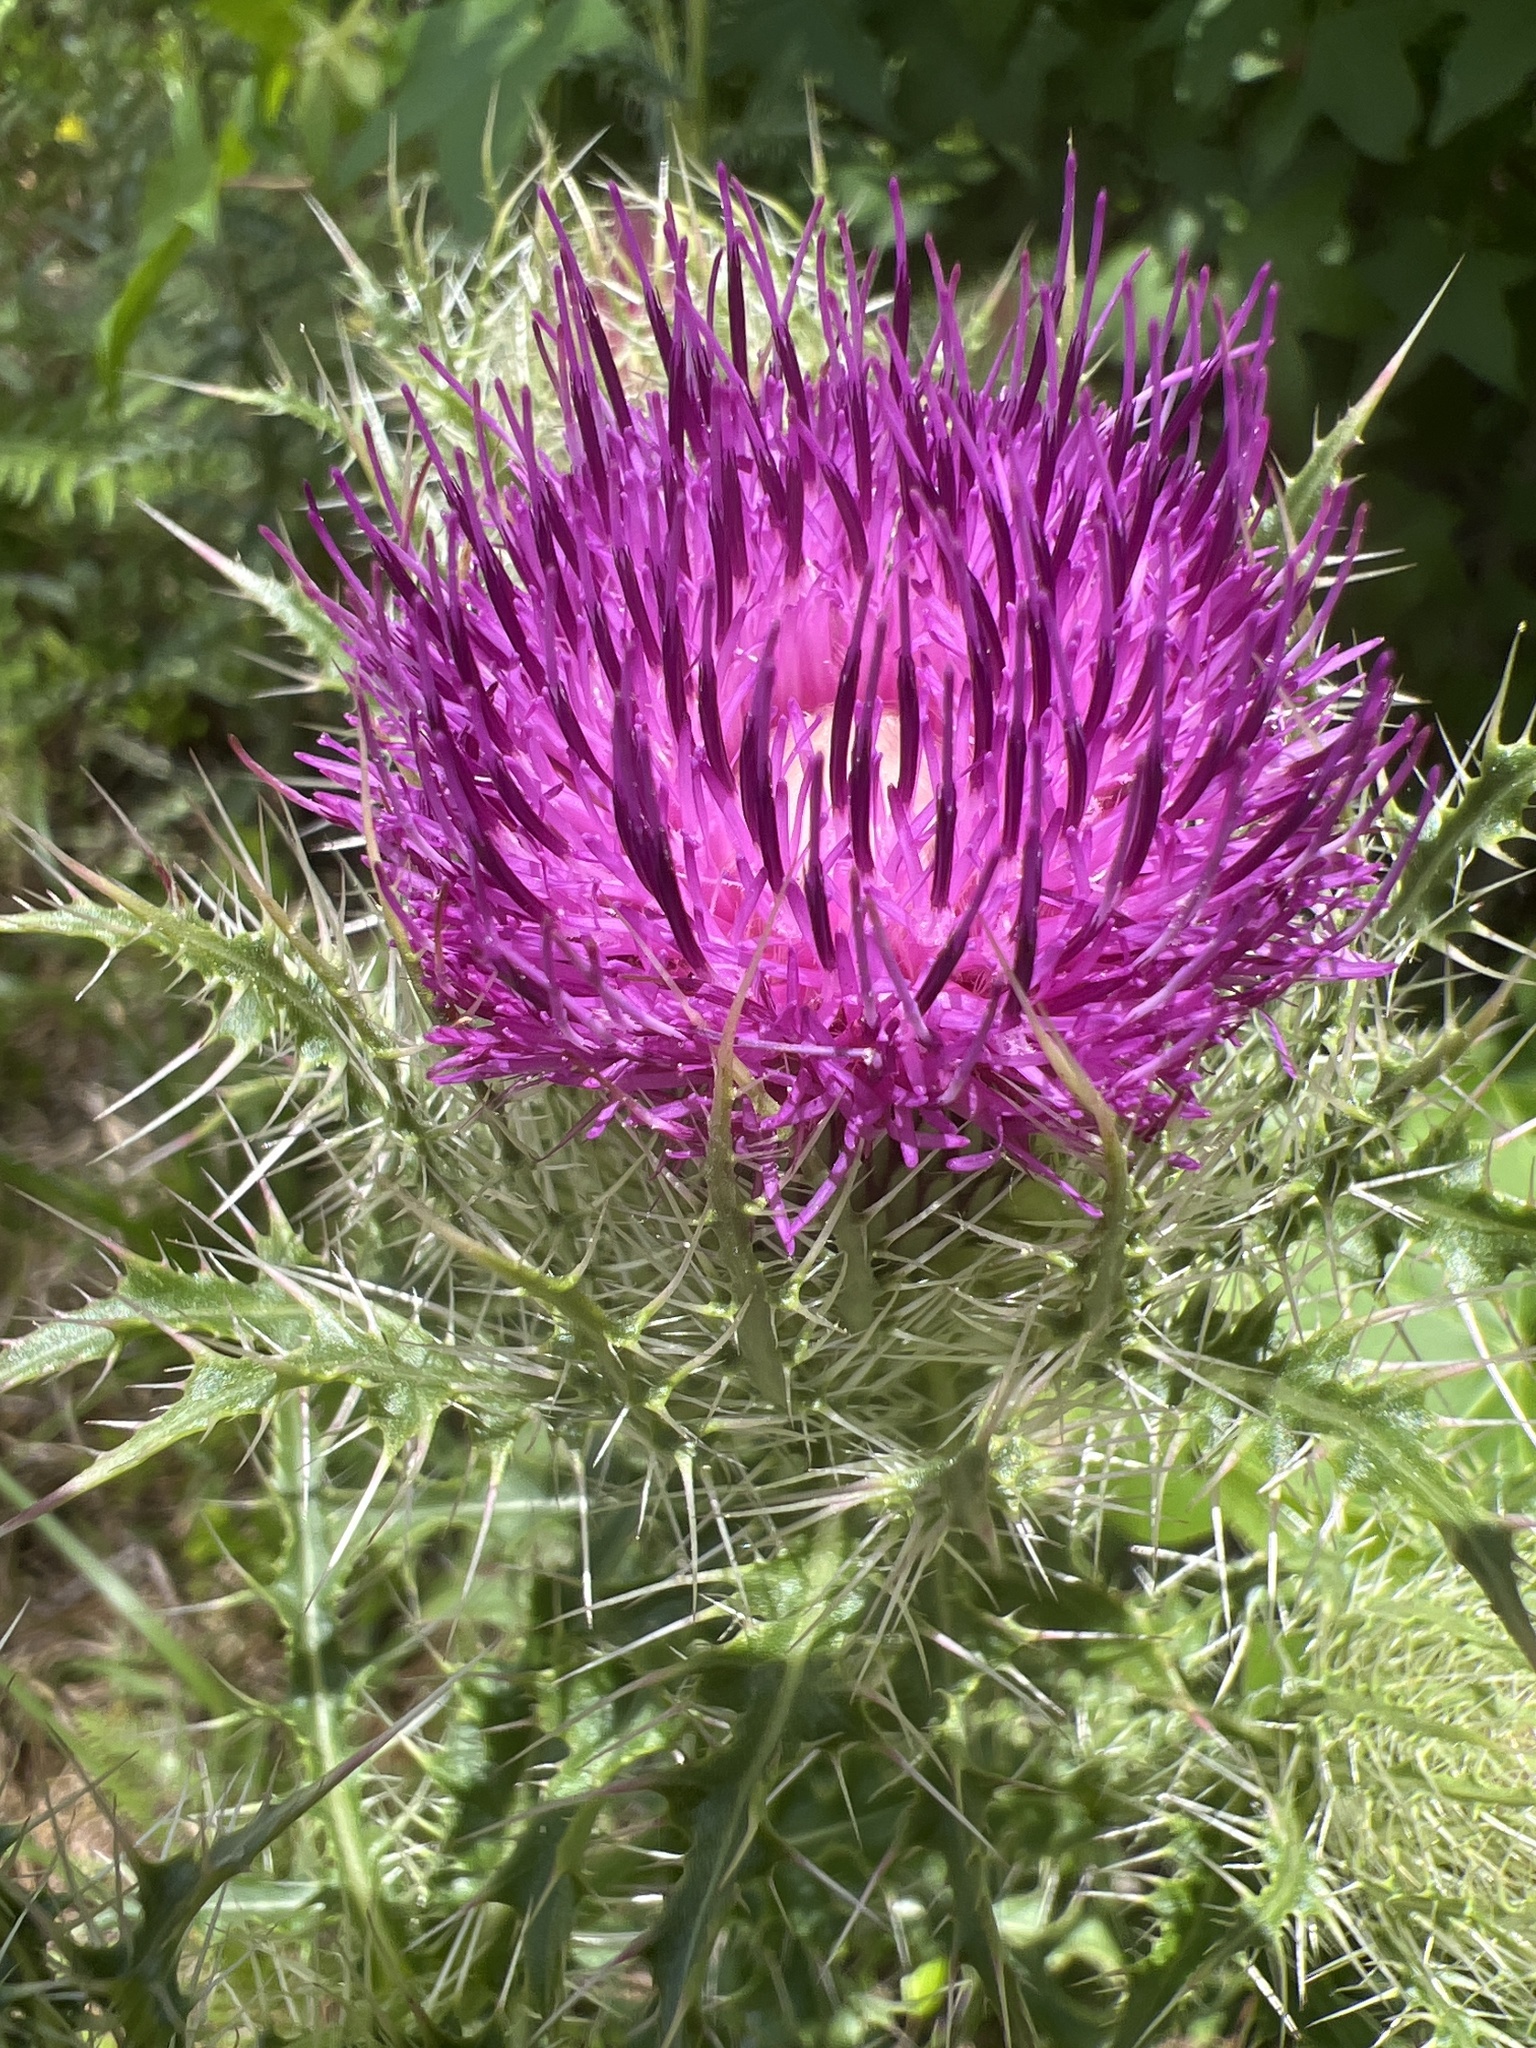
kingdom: Plantae
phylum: Tracheophyta
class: Magnoliopsida
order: Asterales
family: Asteraceae
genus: Cirsium
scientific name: Cirsium horridulum
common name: Bristly thistle
